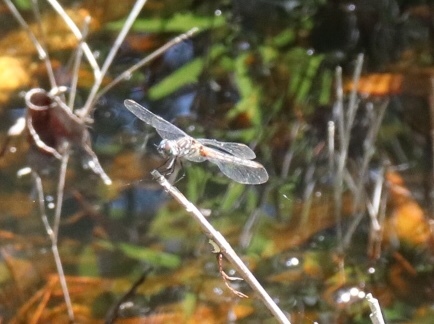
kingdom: Animalia
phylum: Arthropoda
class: Insecta
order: Odonata
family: Libellulidae
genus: Pachydiplax
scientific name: Pachydiplax longipennis
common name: Blue dasher
